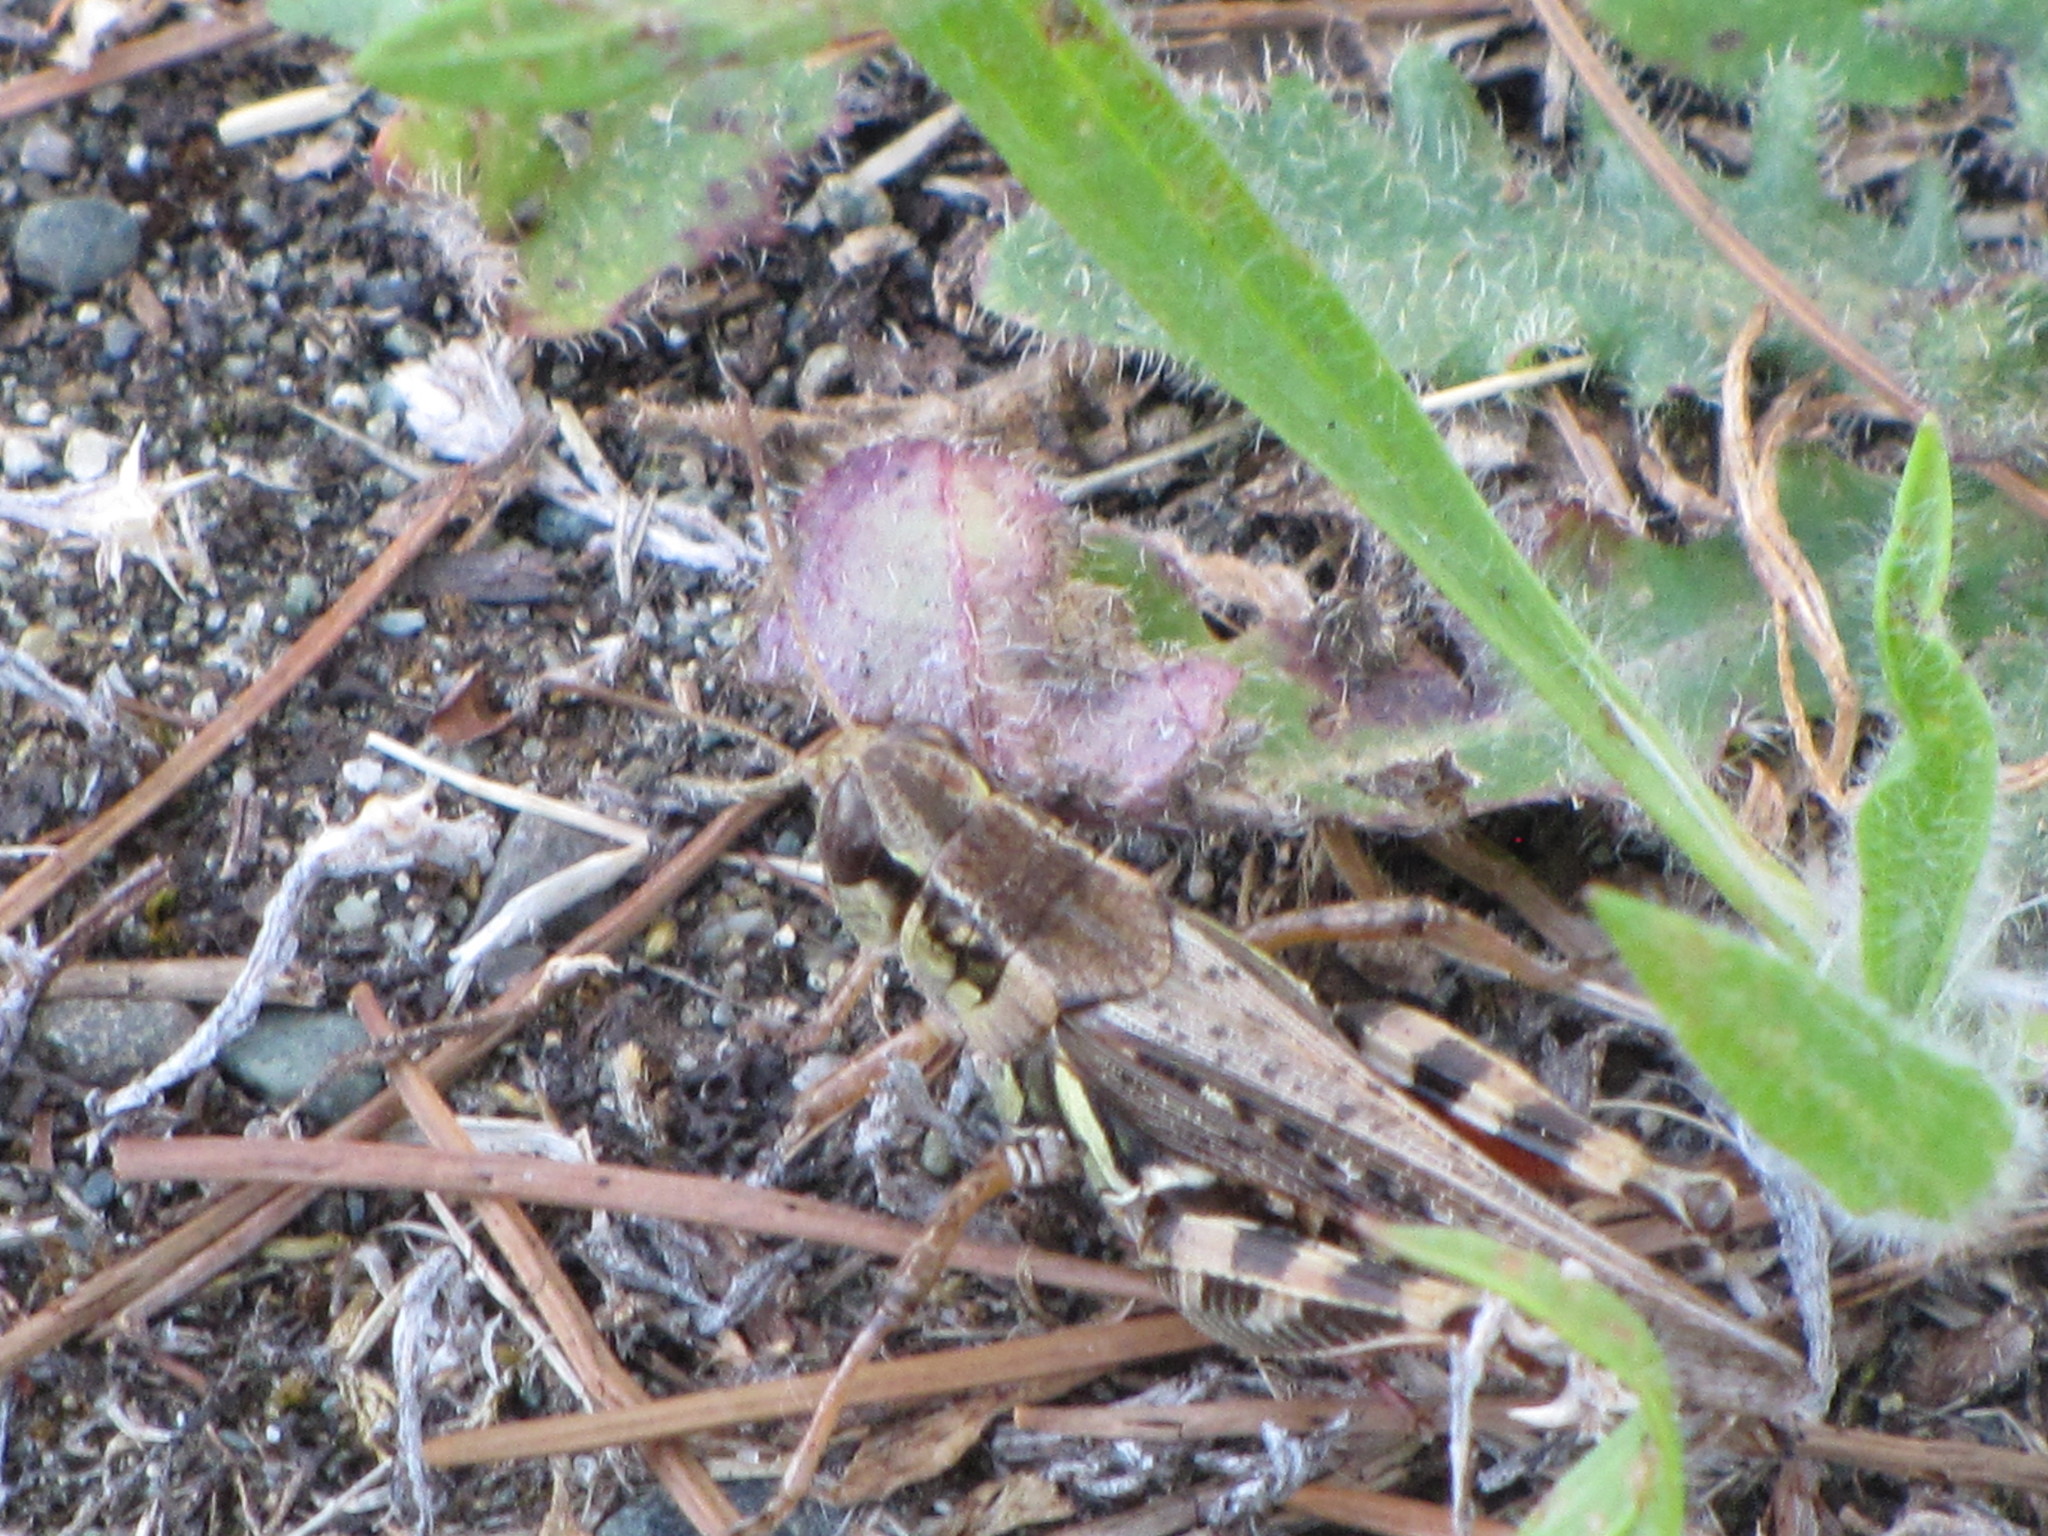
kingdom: Animalia
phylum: Arthropoda
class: Insecta
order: Orthoptera
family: Acrididae
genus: Melanoplus
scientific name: Melanoplus sanguinipes
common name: Migratory grasshopper
